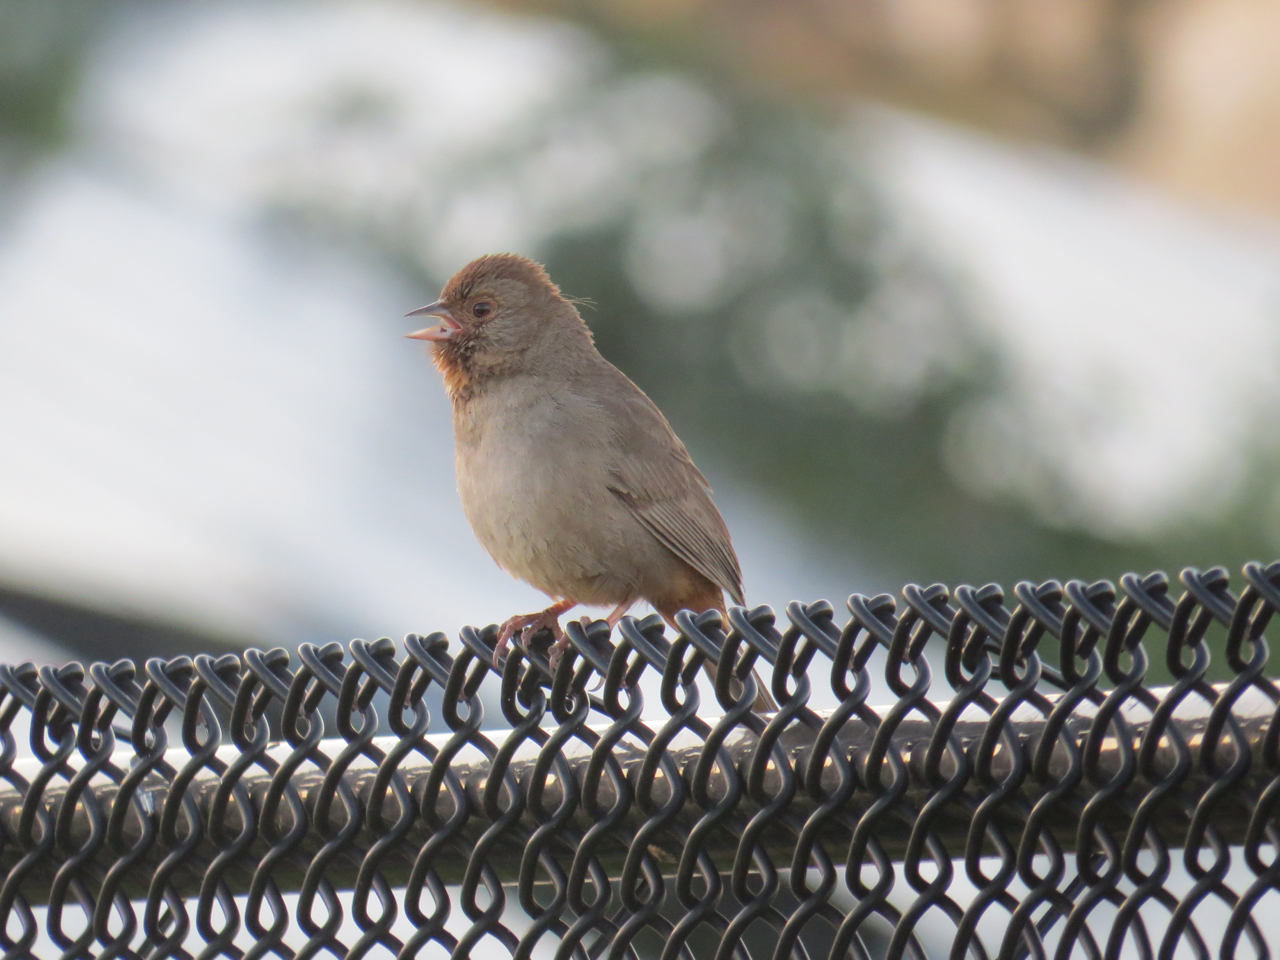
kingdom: Animalia
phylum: Chordata
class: Aves
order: Passeriformes
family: Passerellidae
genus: Melozone
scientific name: Melozone crissalis
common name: California towhee
